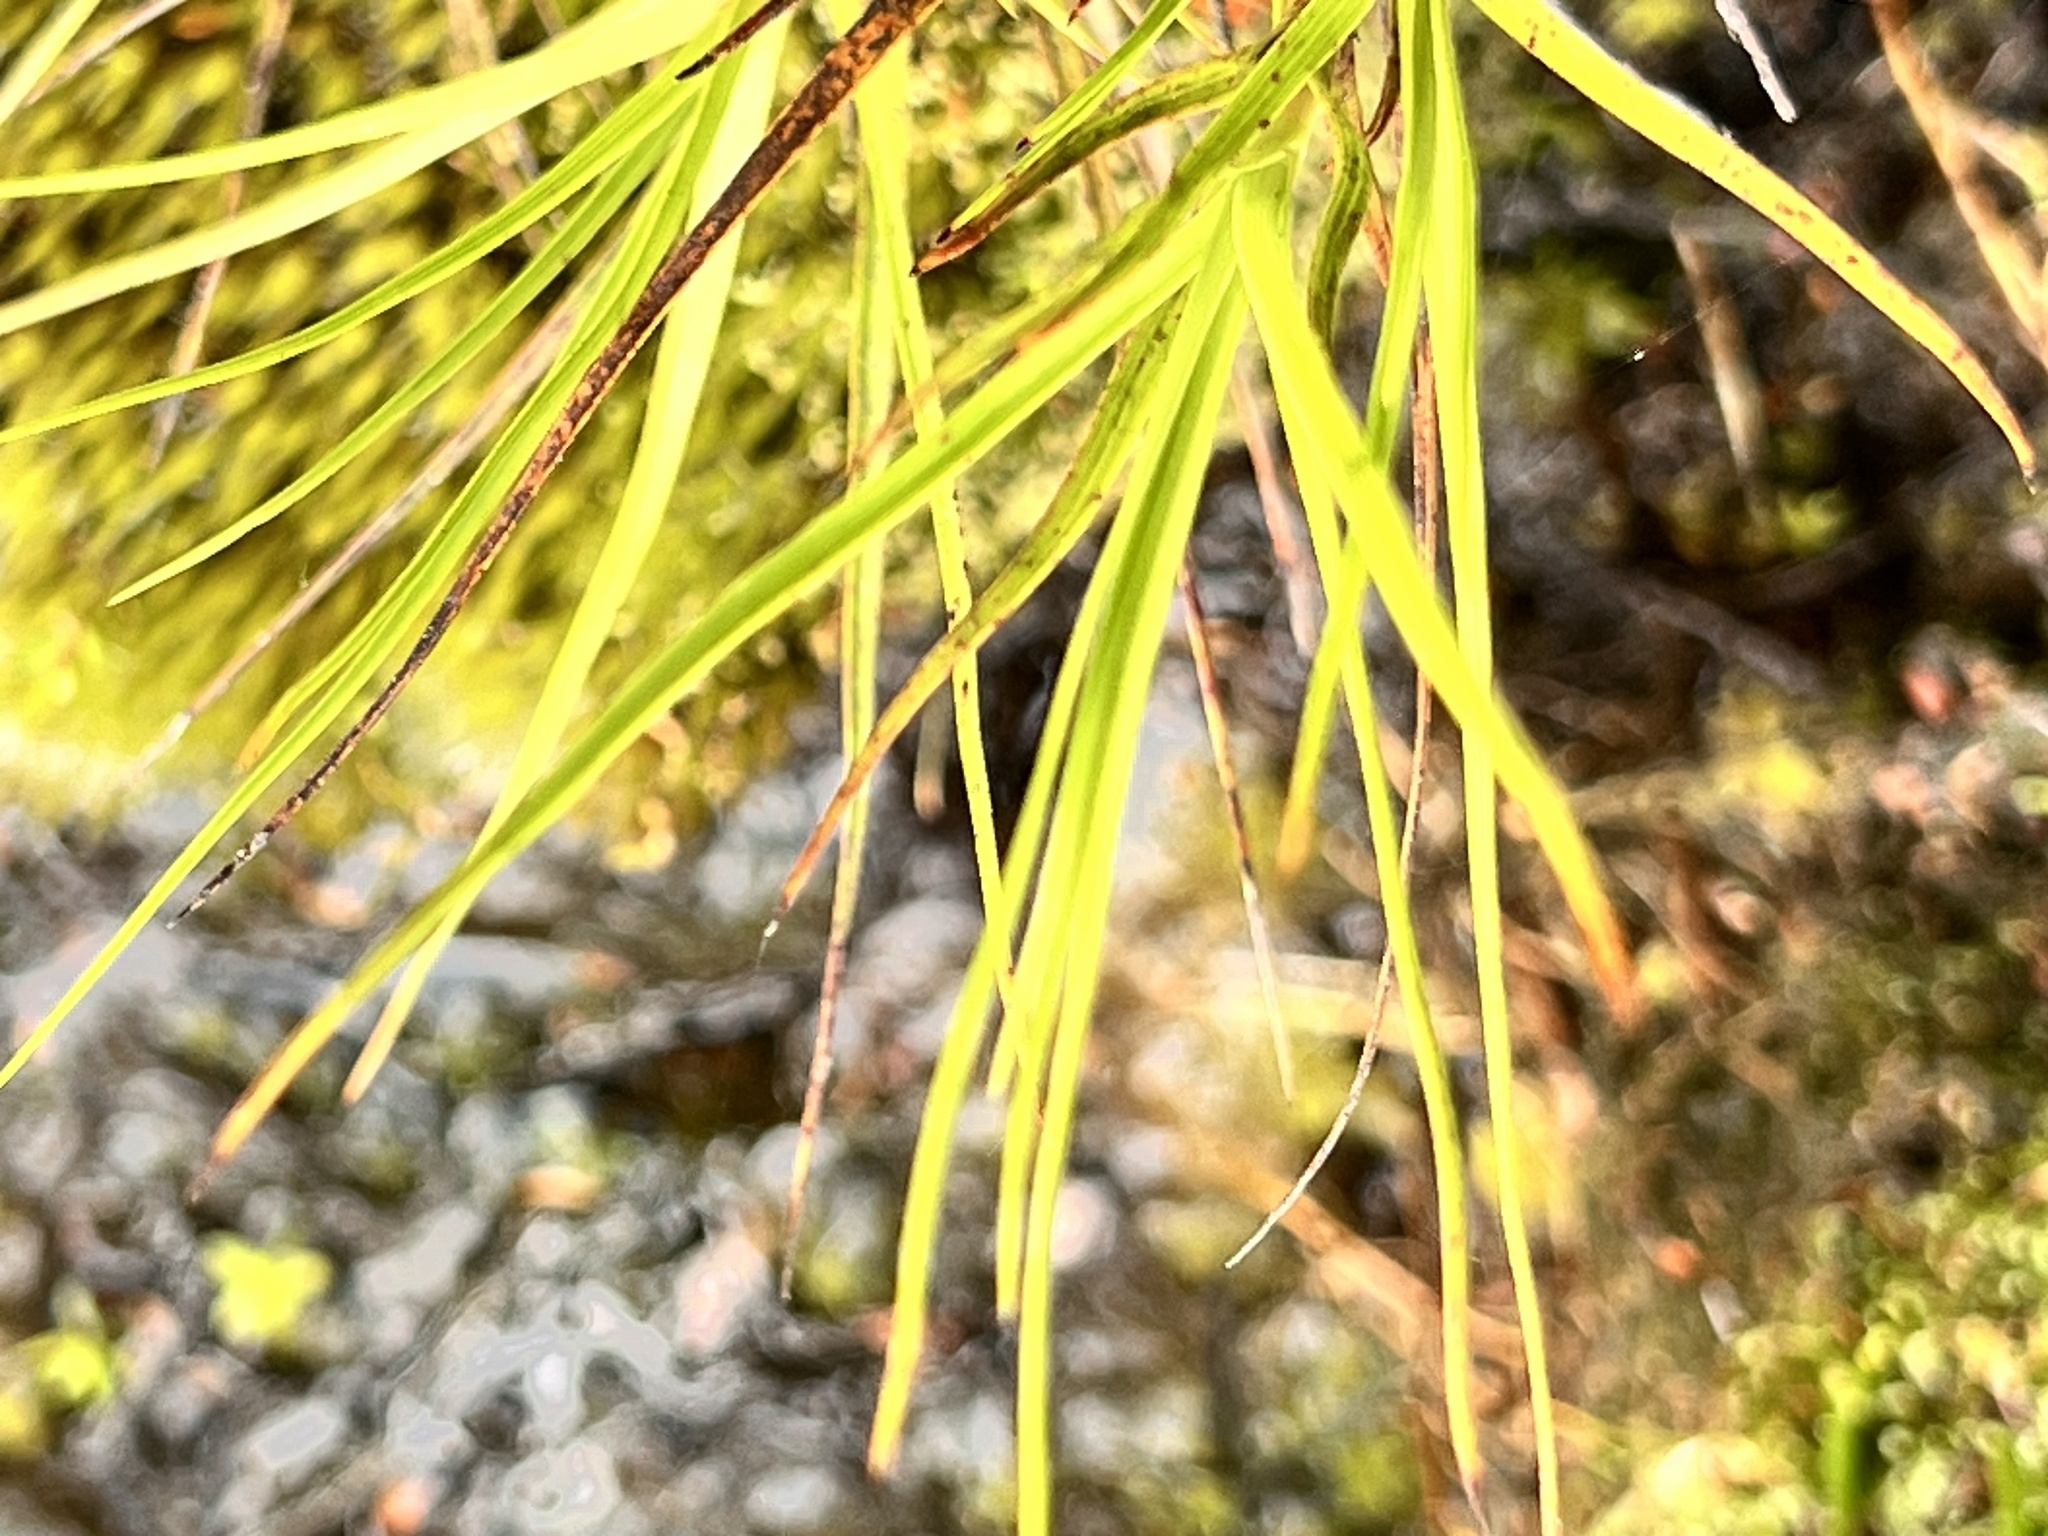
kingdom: Plantae
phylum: Tracheophyta
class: Magnoliopsida
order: Ericales
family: Ericaceae
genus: Dracophyllum
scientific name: Dracophyllum longifolium
